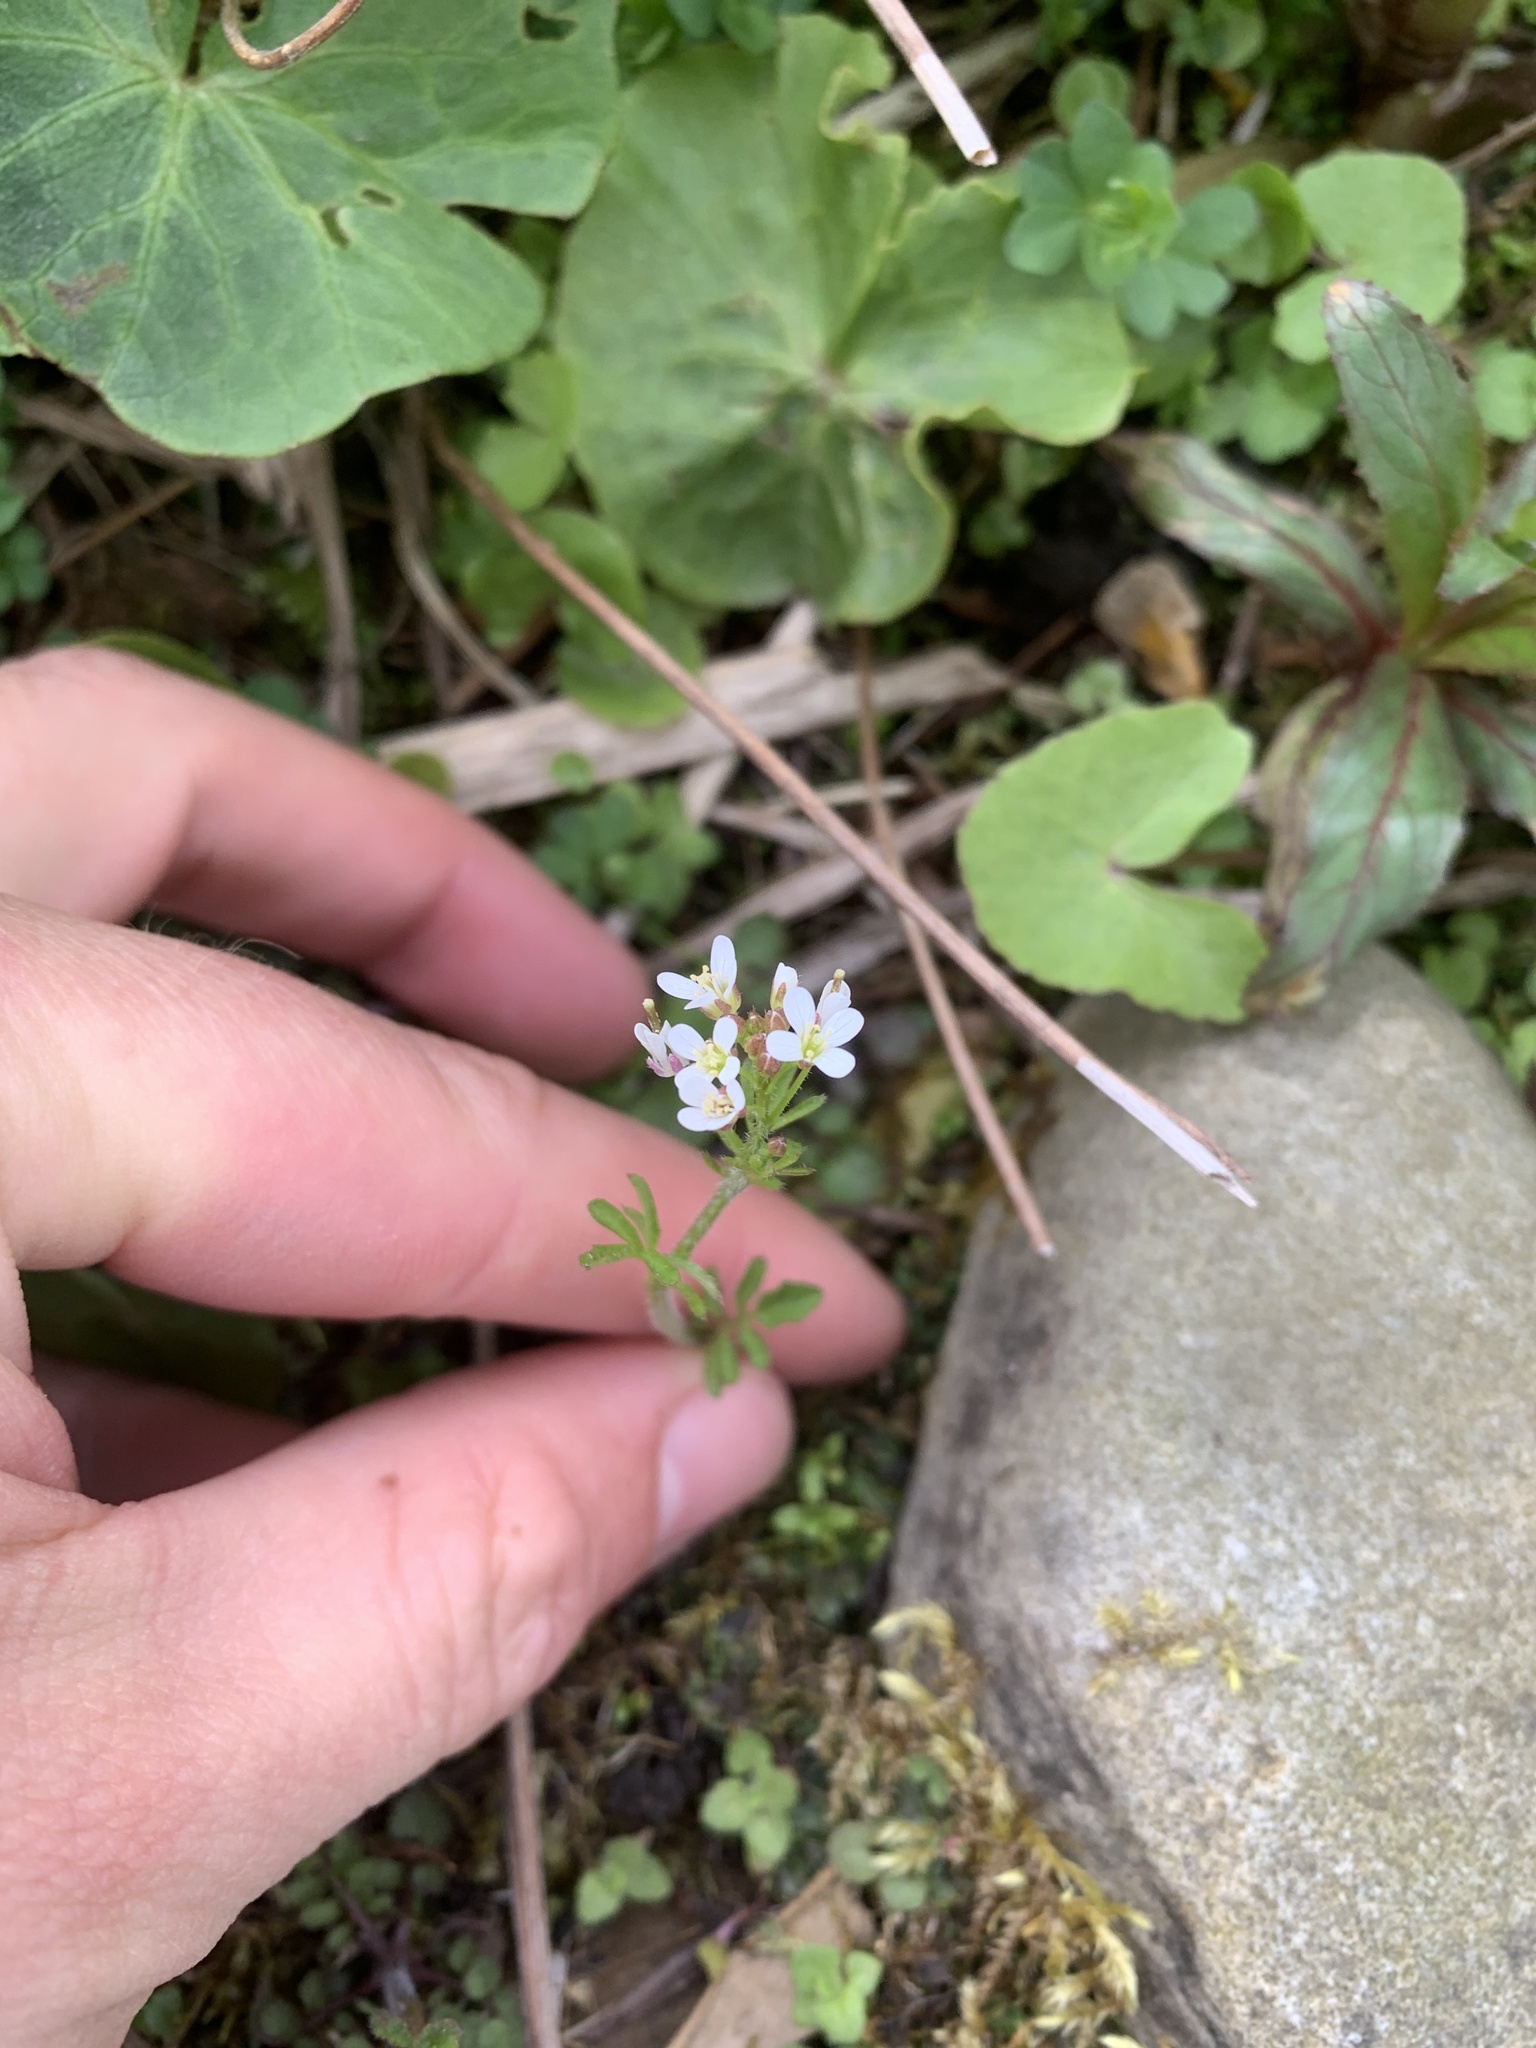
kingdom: Plantae
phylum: Tracheophyta
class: Magnoliopsida
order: Brassicales
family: Brassicaceae
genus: Cardamine
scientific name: Cardamine flexuosa
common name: Woodland bittercress
